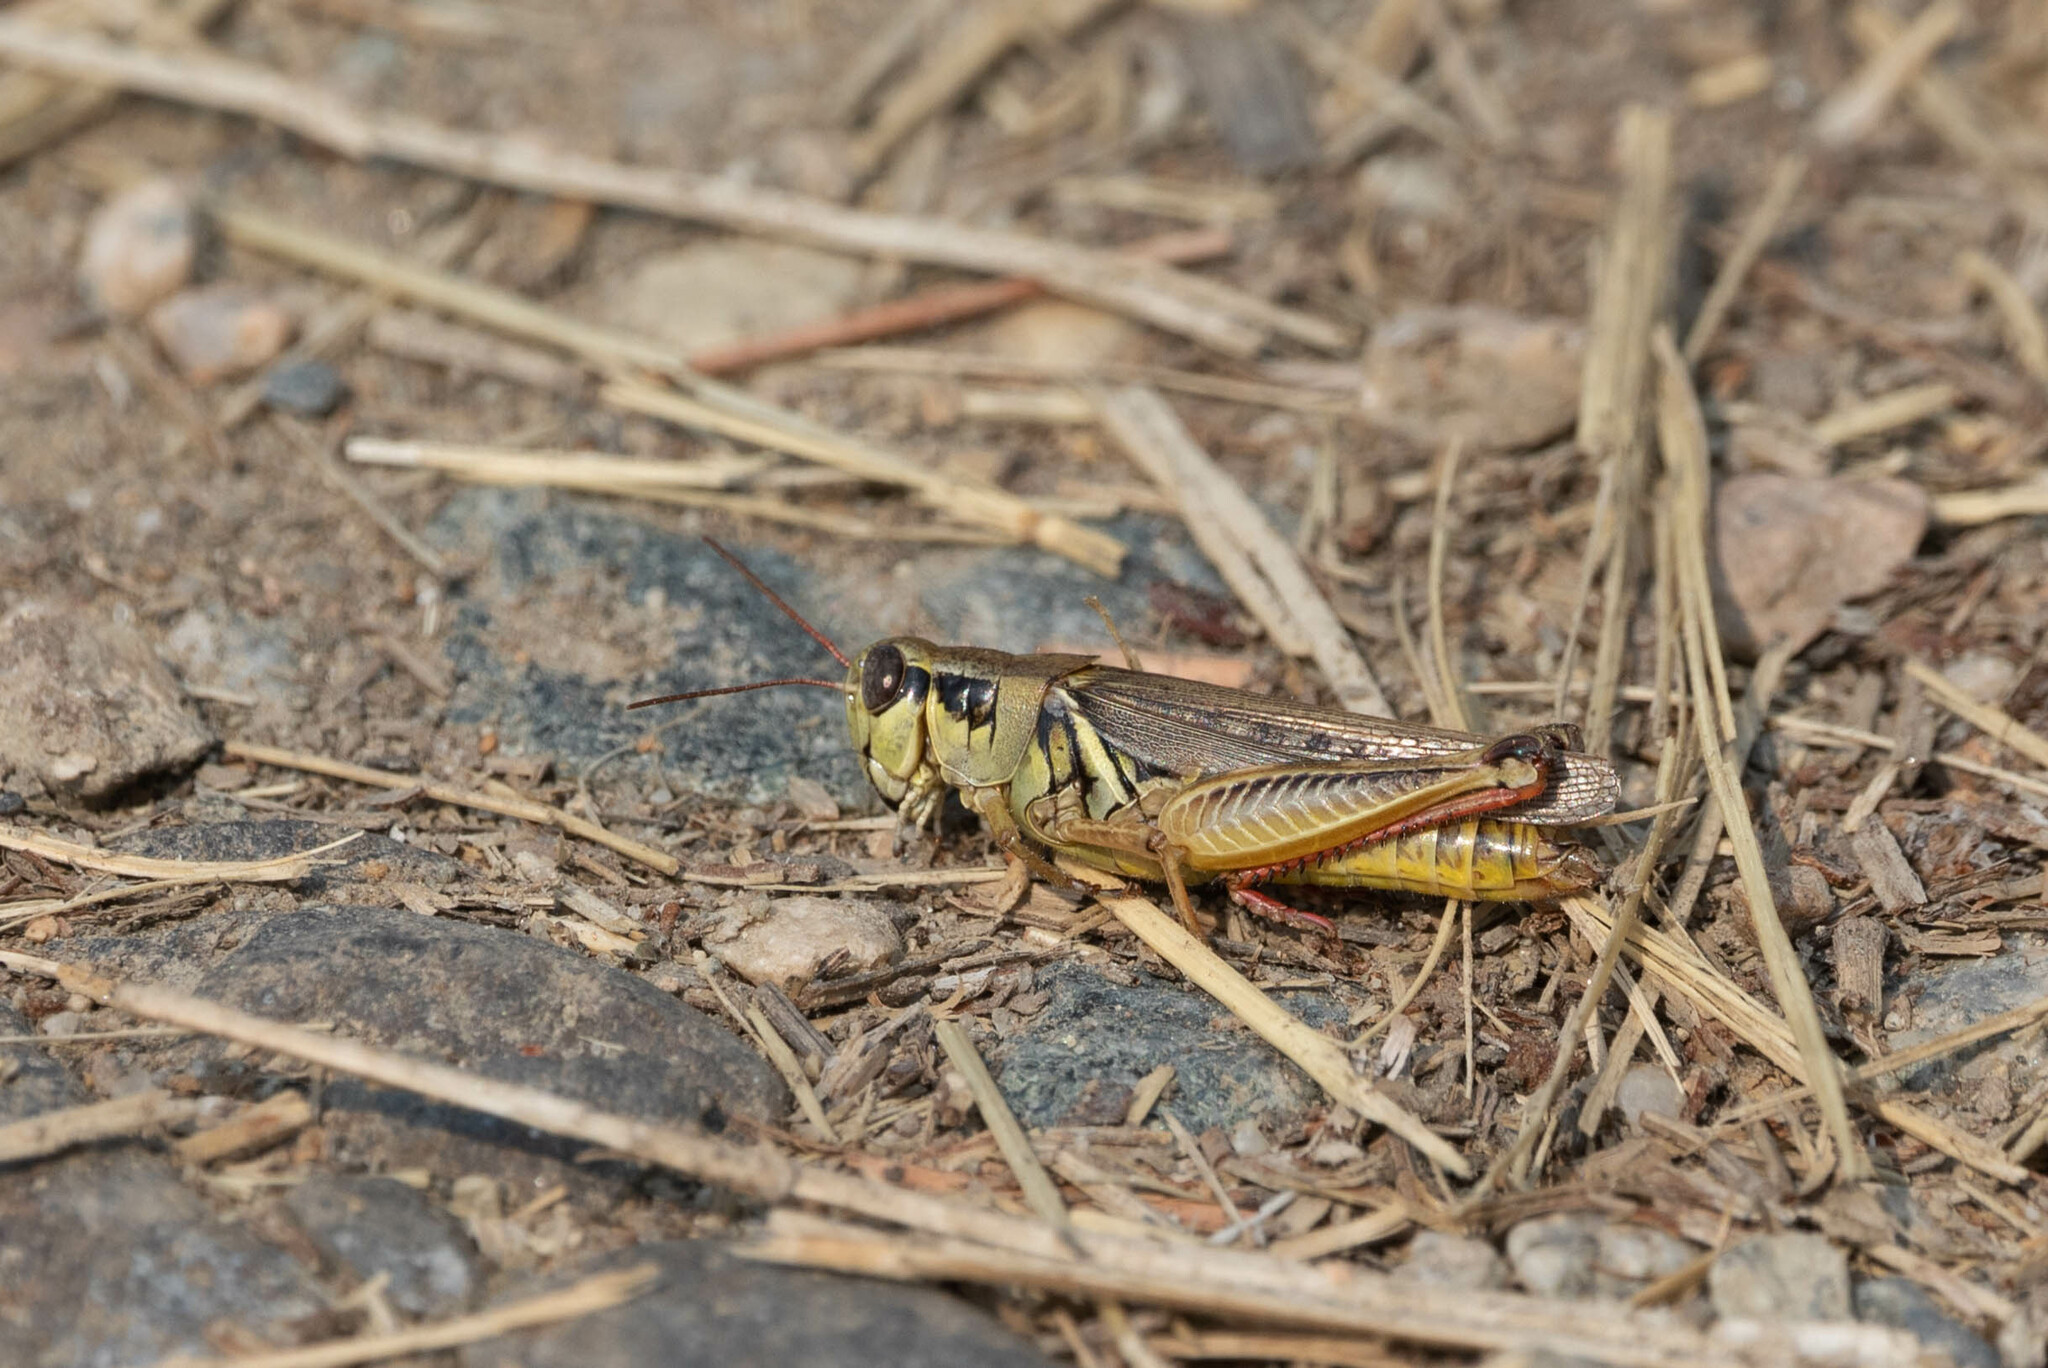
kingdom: Animalia
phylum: Arthropoda
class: Insecta
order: Orthoptera
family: Acrididae
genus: Melanoplus
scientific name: Melanoplus femurrubrum
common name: Red-legged grasshopper
